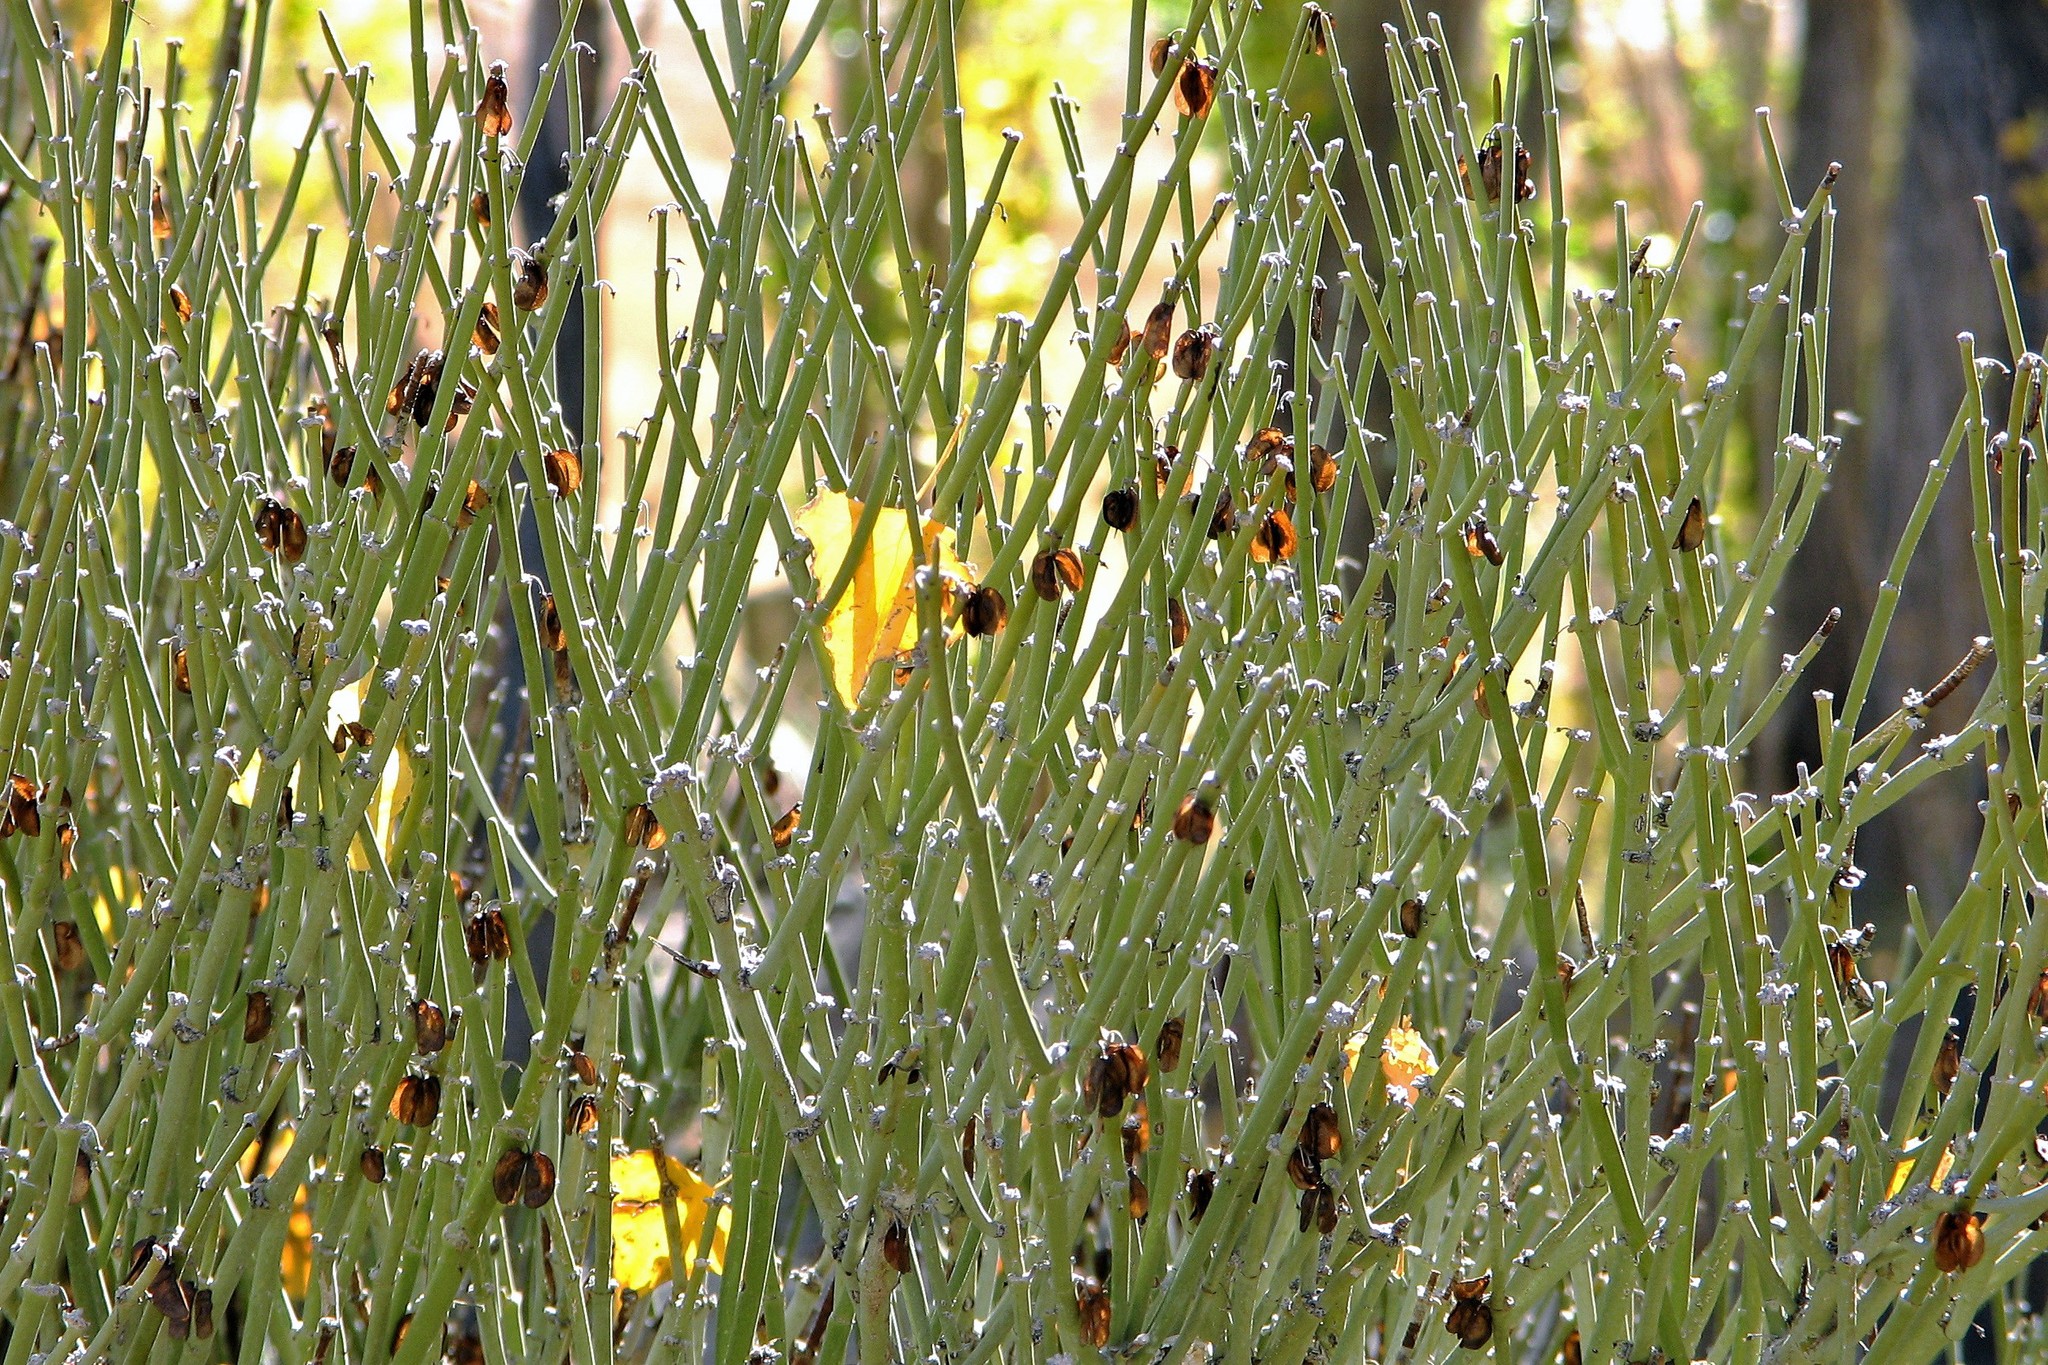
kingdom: Plantae
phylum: Tracheophyta
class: Magnoliopsida
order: Zygophyllales
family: Zygophyllaceae
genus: Bulnesia
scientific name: Bulnesia retama
